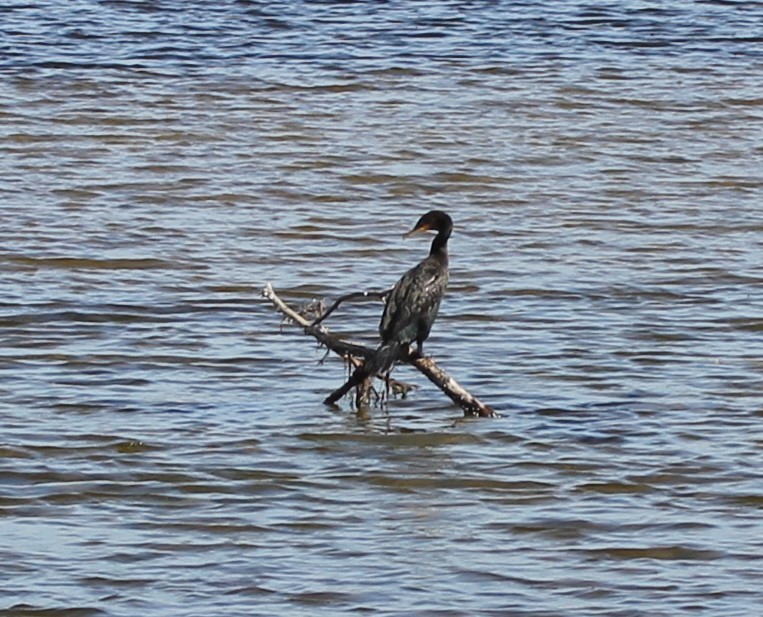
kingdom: Animalia
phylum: Chordata
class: Aves
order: Suliformes
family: Phalacrocoracidae
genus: Phalacrocorax
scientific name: Phalacrocorax auritus
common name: Double-crested cormorant
